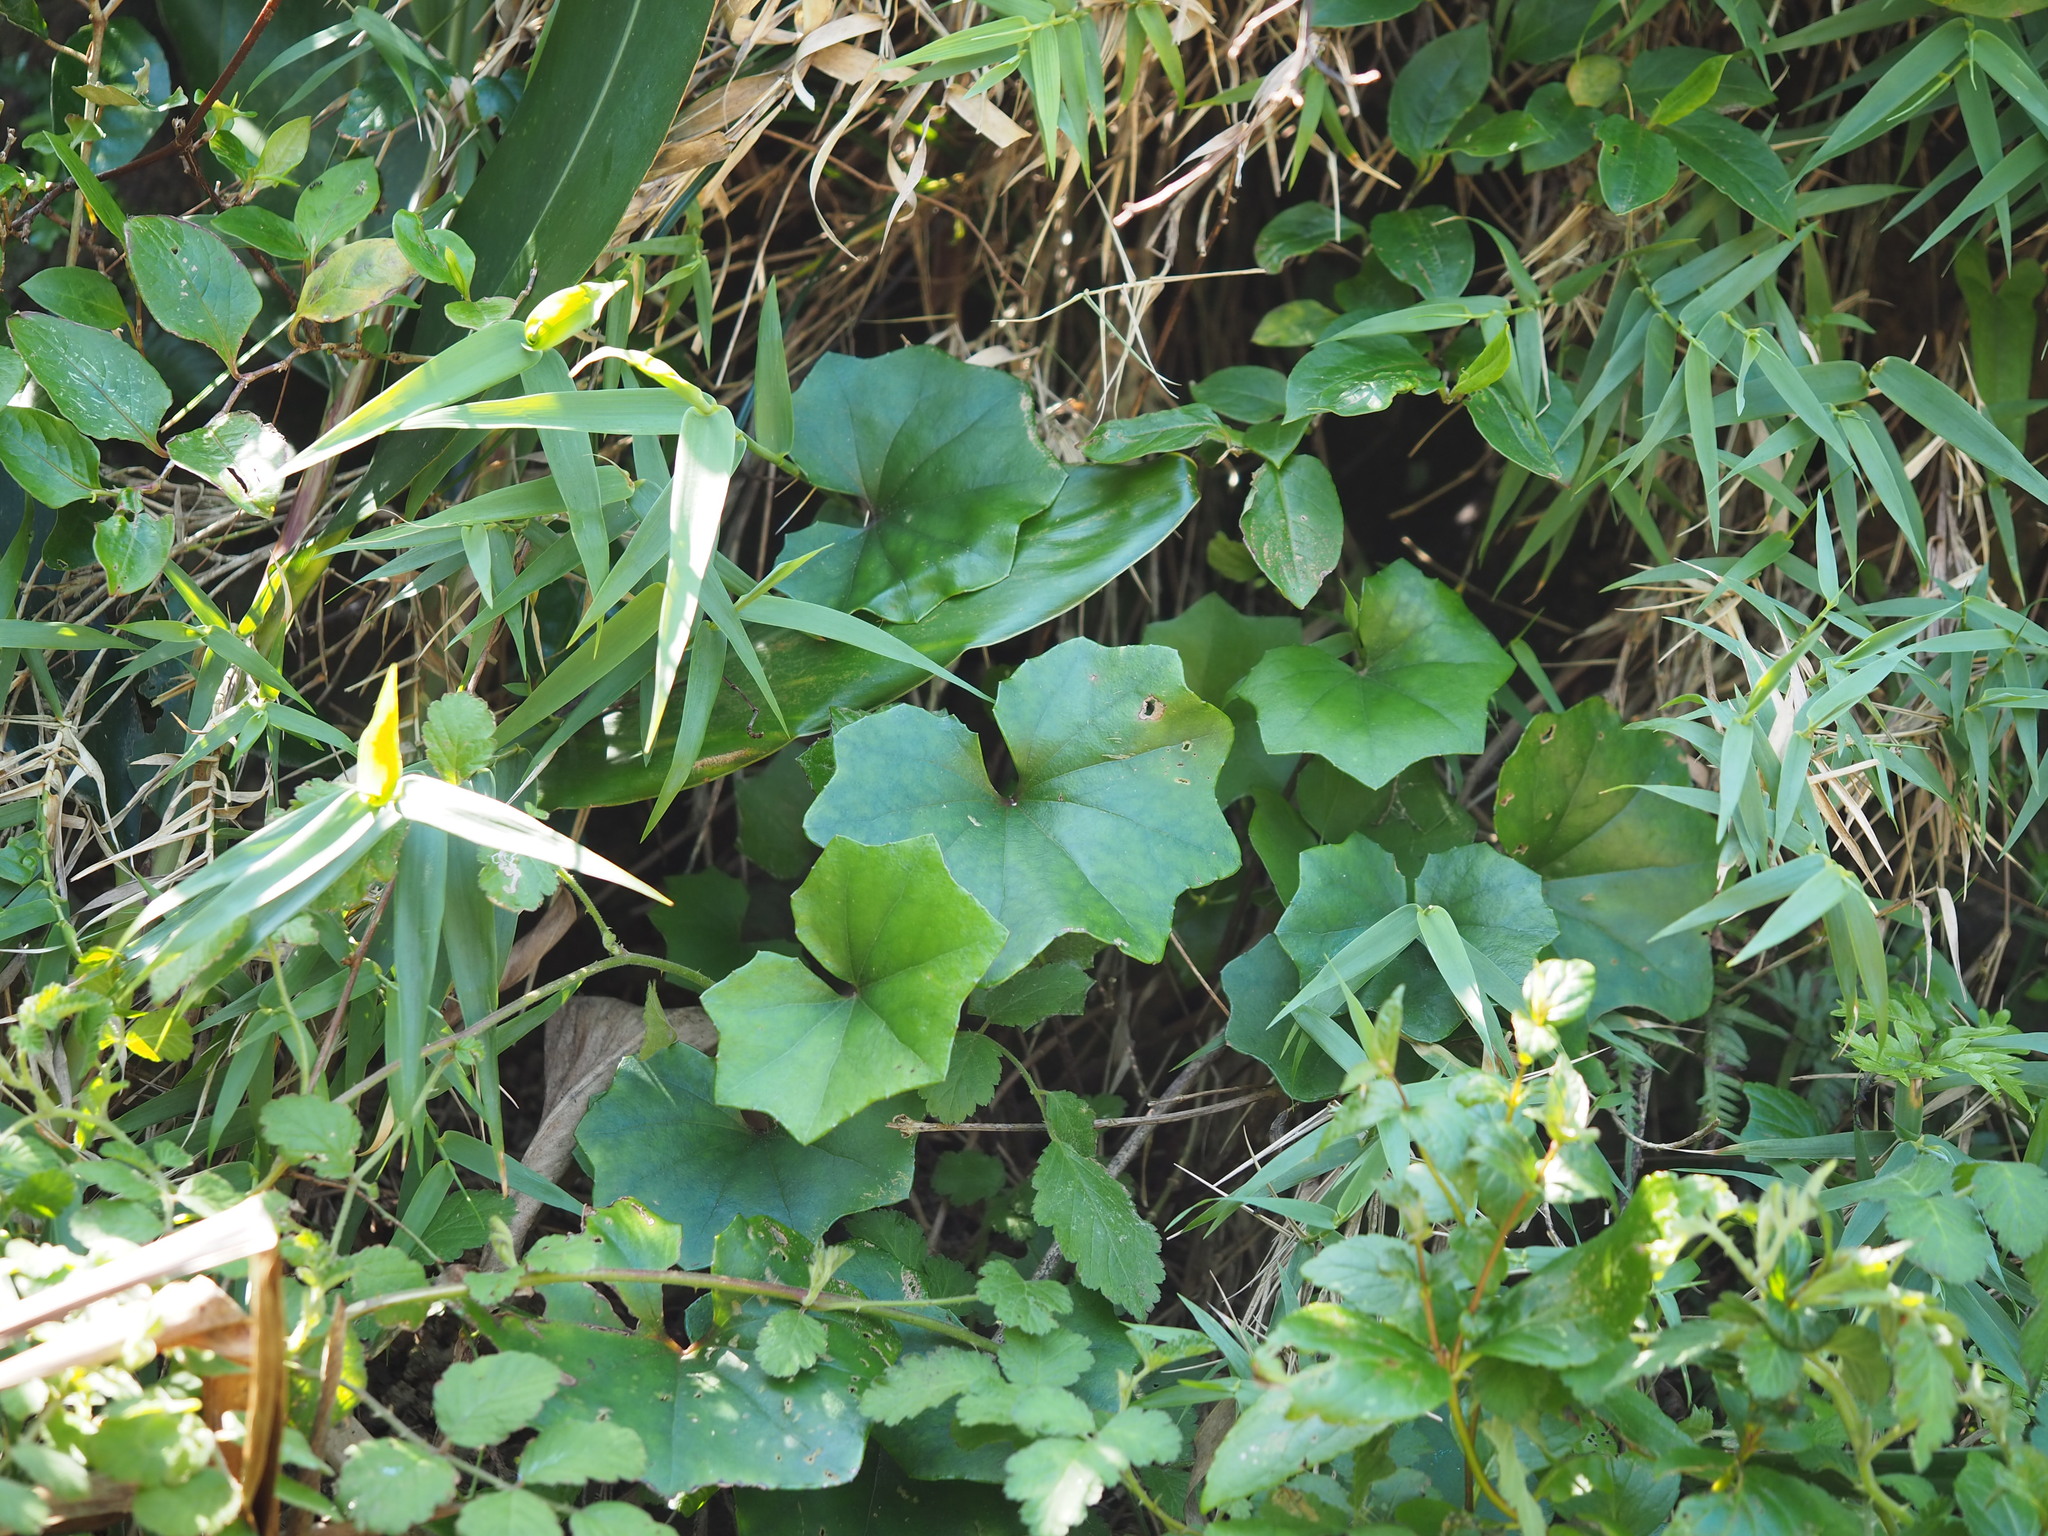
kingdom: Plantae
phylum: Tracheophyta
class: Magnoliopsida
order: Asterales
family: Asteraceae
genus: Farfugium
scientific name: Farfugium japonicum
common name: Leopardplant
